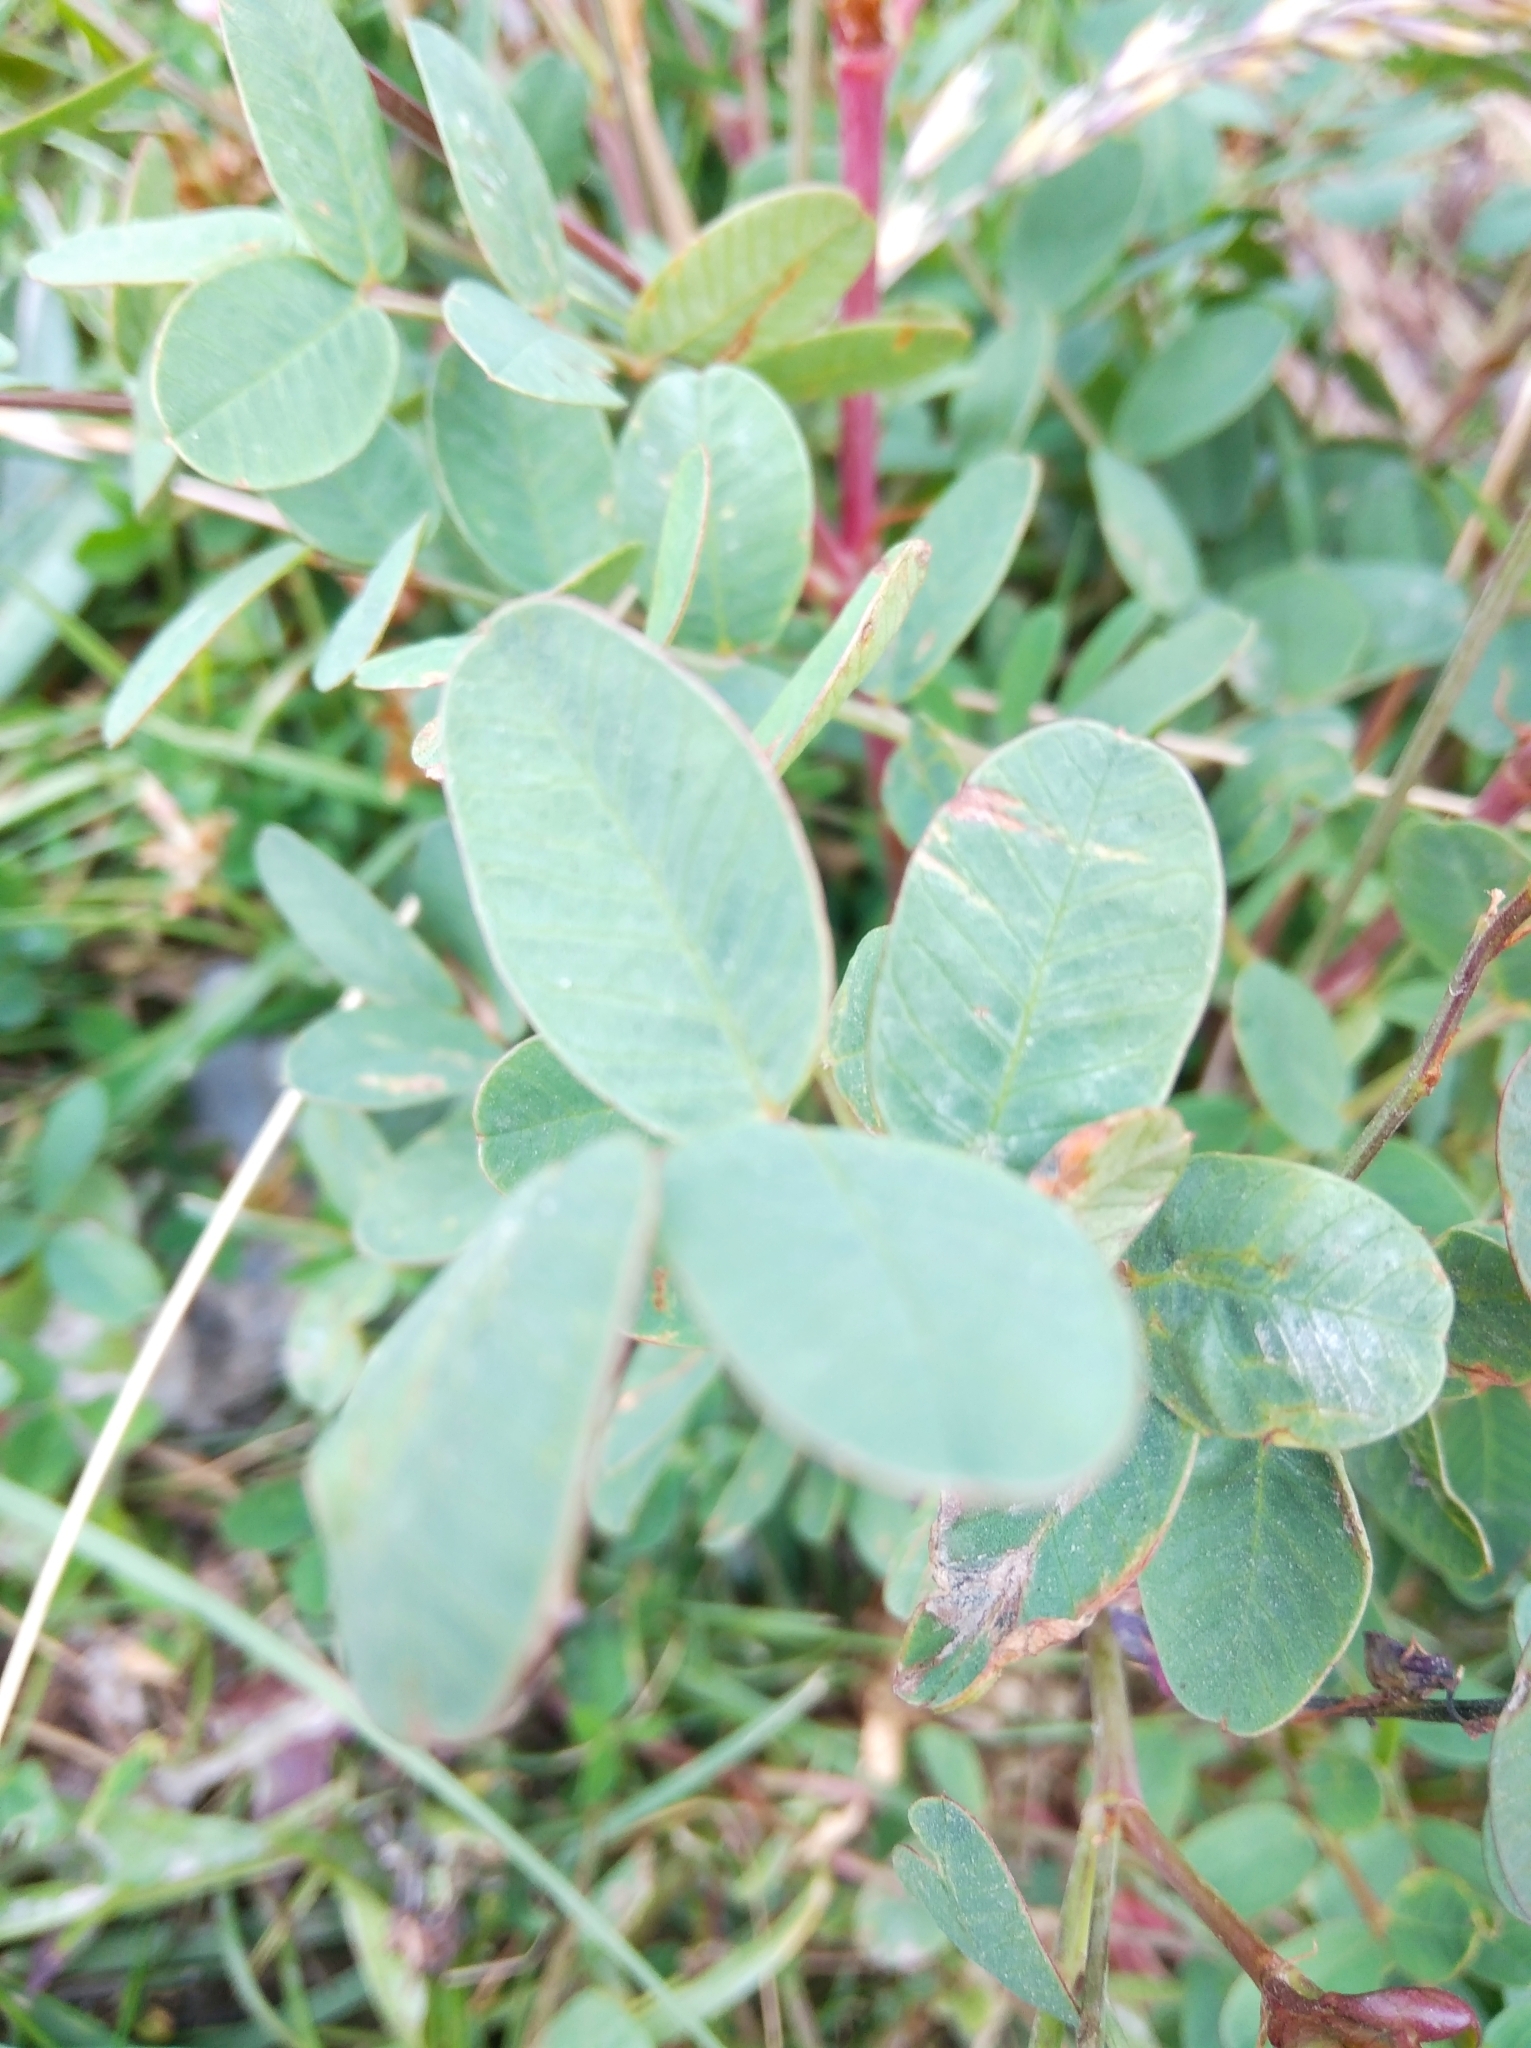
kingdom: Plantae
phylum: Tracheophyta
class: Magnoliopsida
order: Fabales
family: Fabaceae
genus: Hedysarum
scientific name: Hedysarum hedysaroides
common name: Alpine french-honeysuckle
